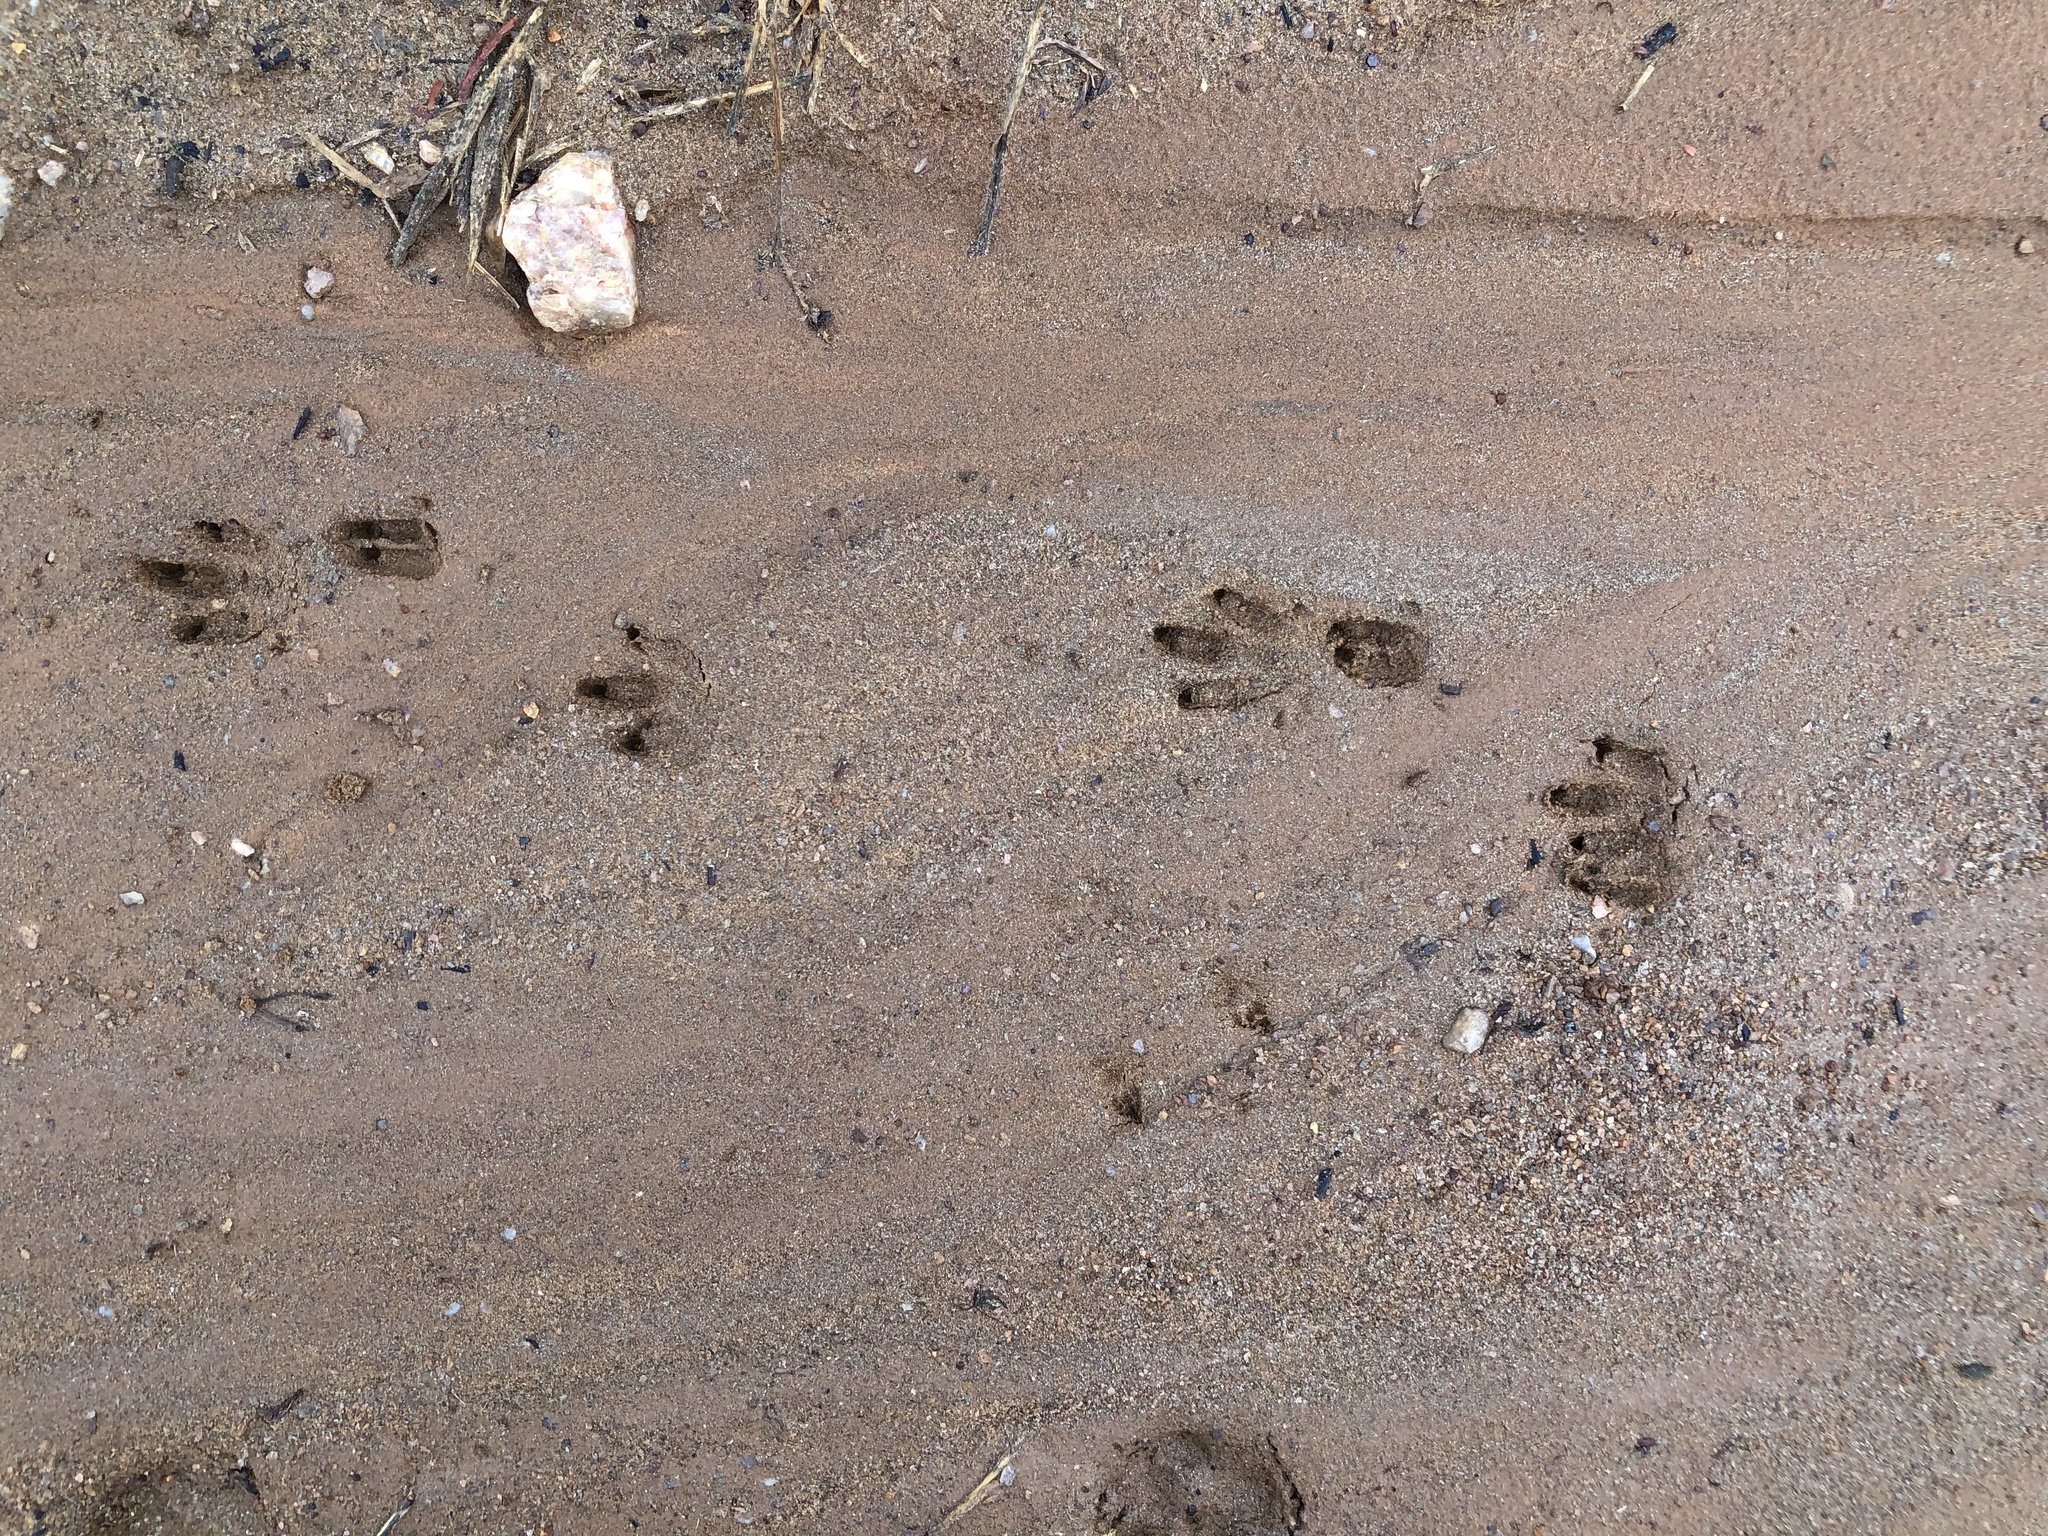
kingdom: Animalia
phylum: Chordata
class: Mammalia
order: Cingulata
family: Dasypodidae
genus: Dasypus
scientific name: Dasypus novemcinctus
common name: Nine-banded armadillo
